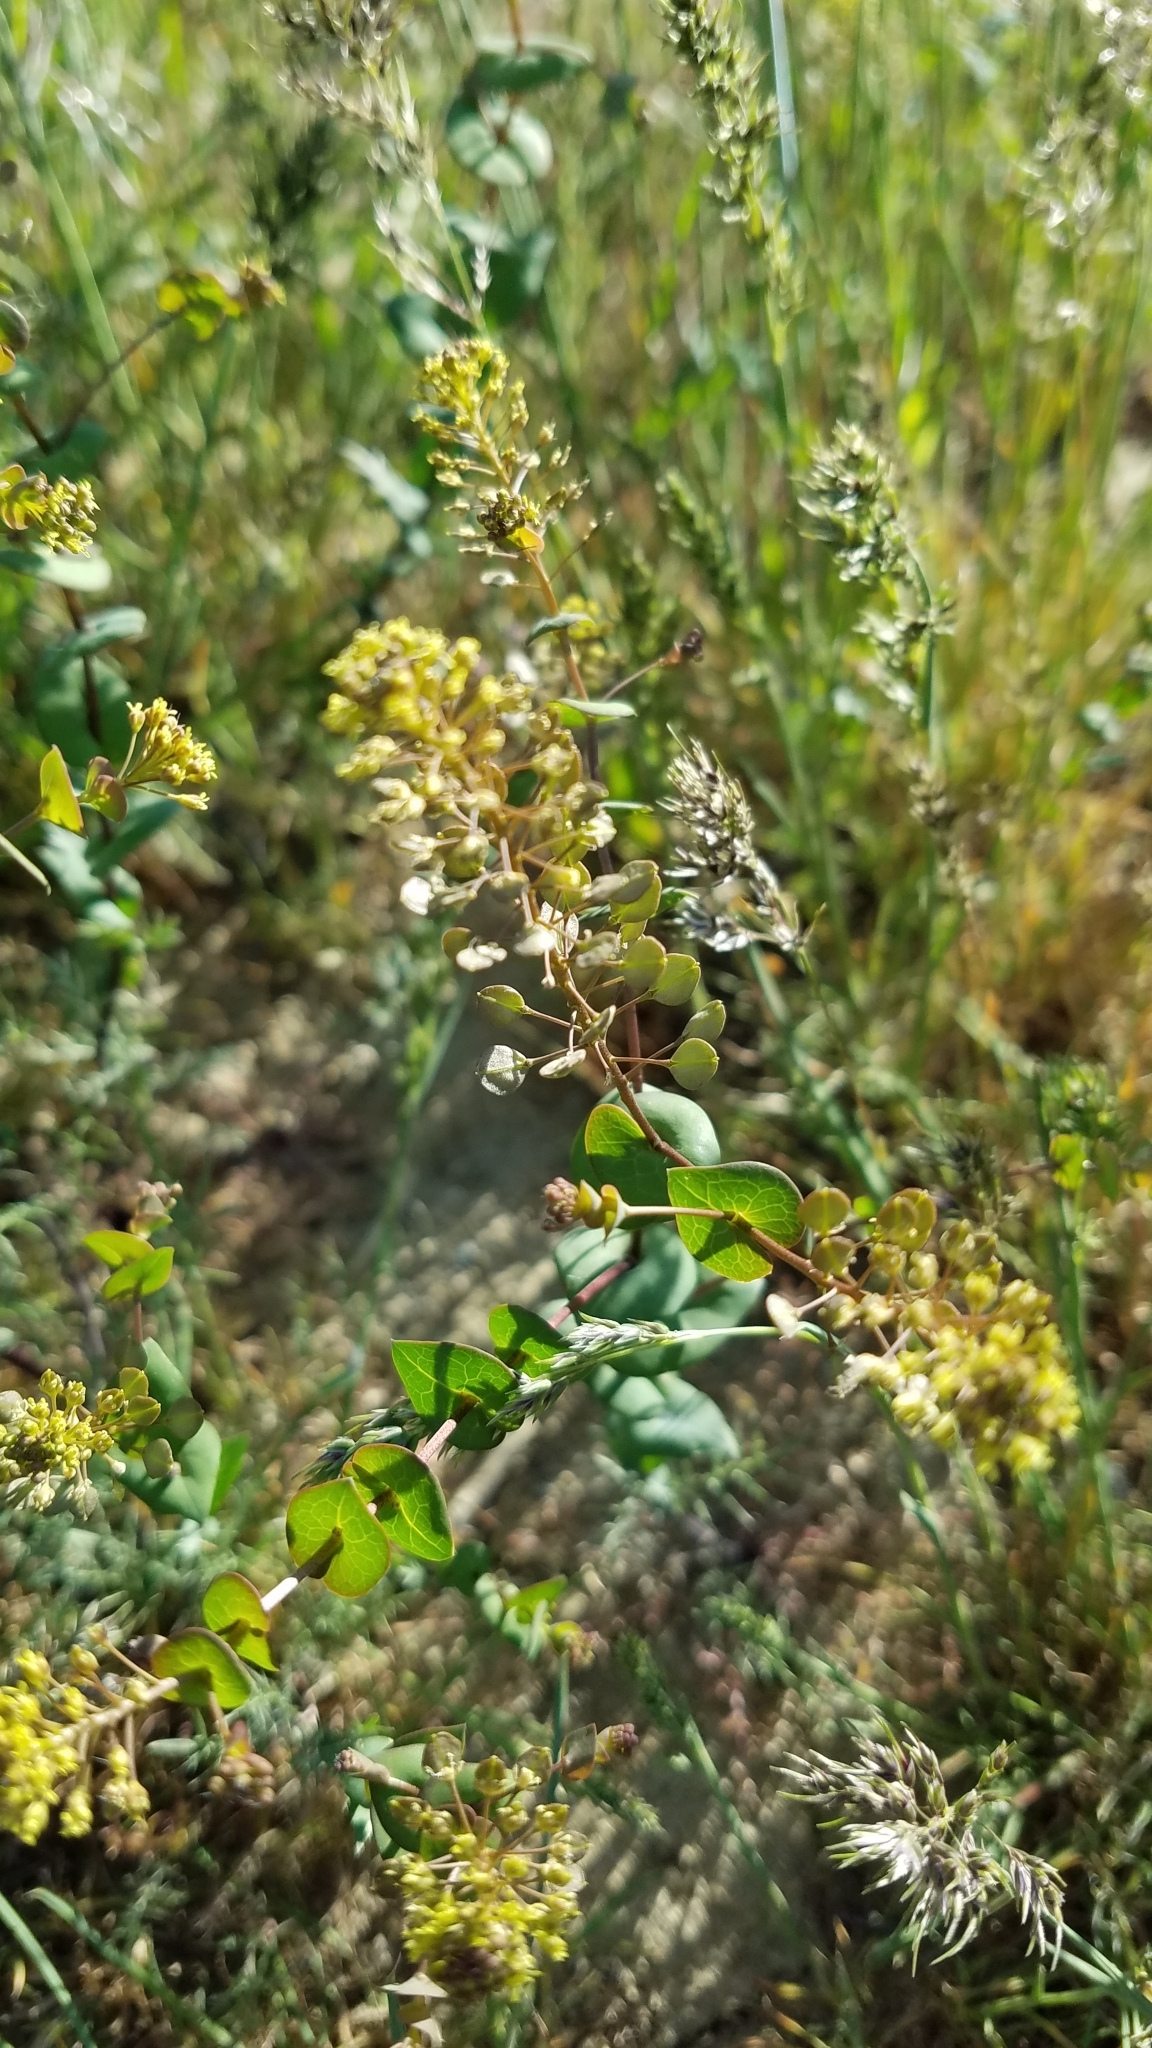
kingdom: Plantae
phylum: Tracheophyta
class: Magnoliopsida
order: Brassicales
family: Brassicaceae
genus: Lepidium
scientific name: Lepidium perfoliatum
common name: Perfoliate pepperwort
